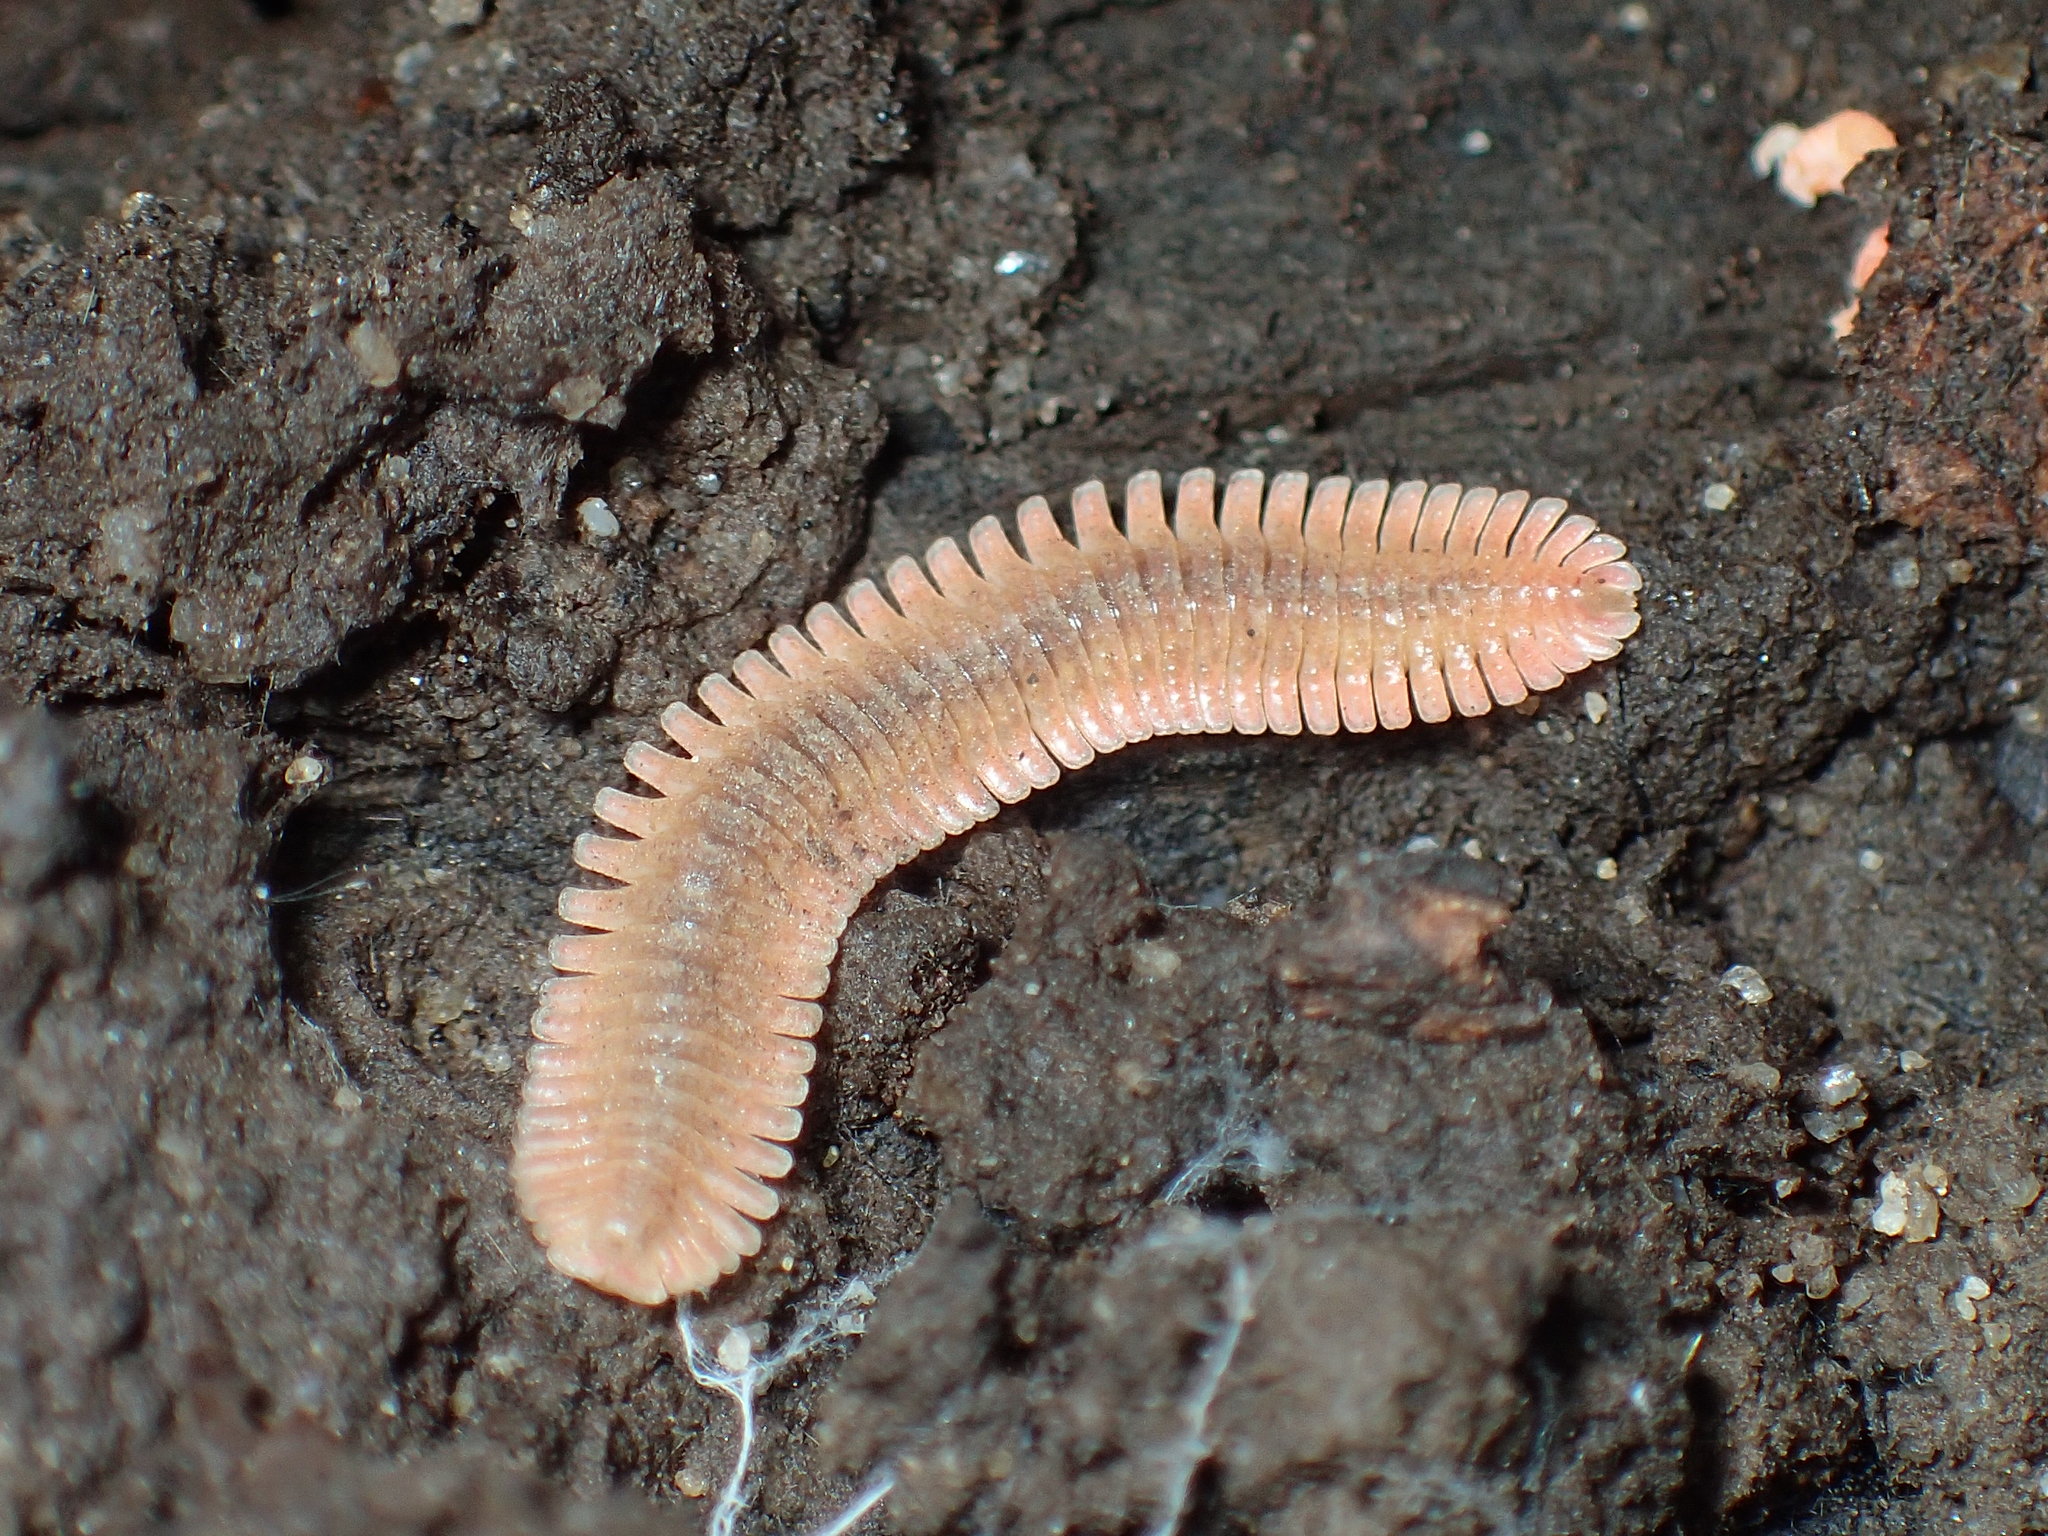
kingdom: Animalia
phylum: Arthropoda
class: Diplopoda
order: Platydesmida
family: Andrognathidae
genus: Brachycybe
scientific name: Brachycybe petasata
